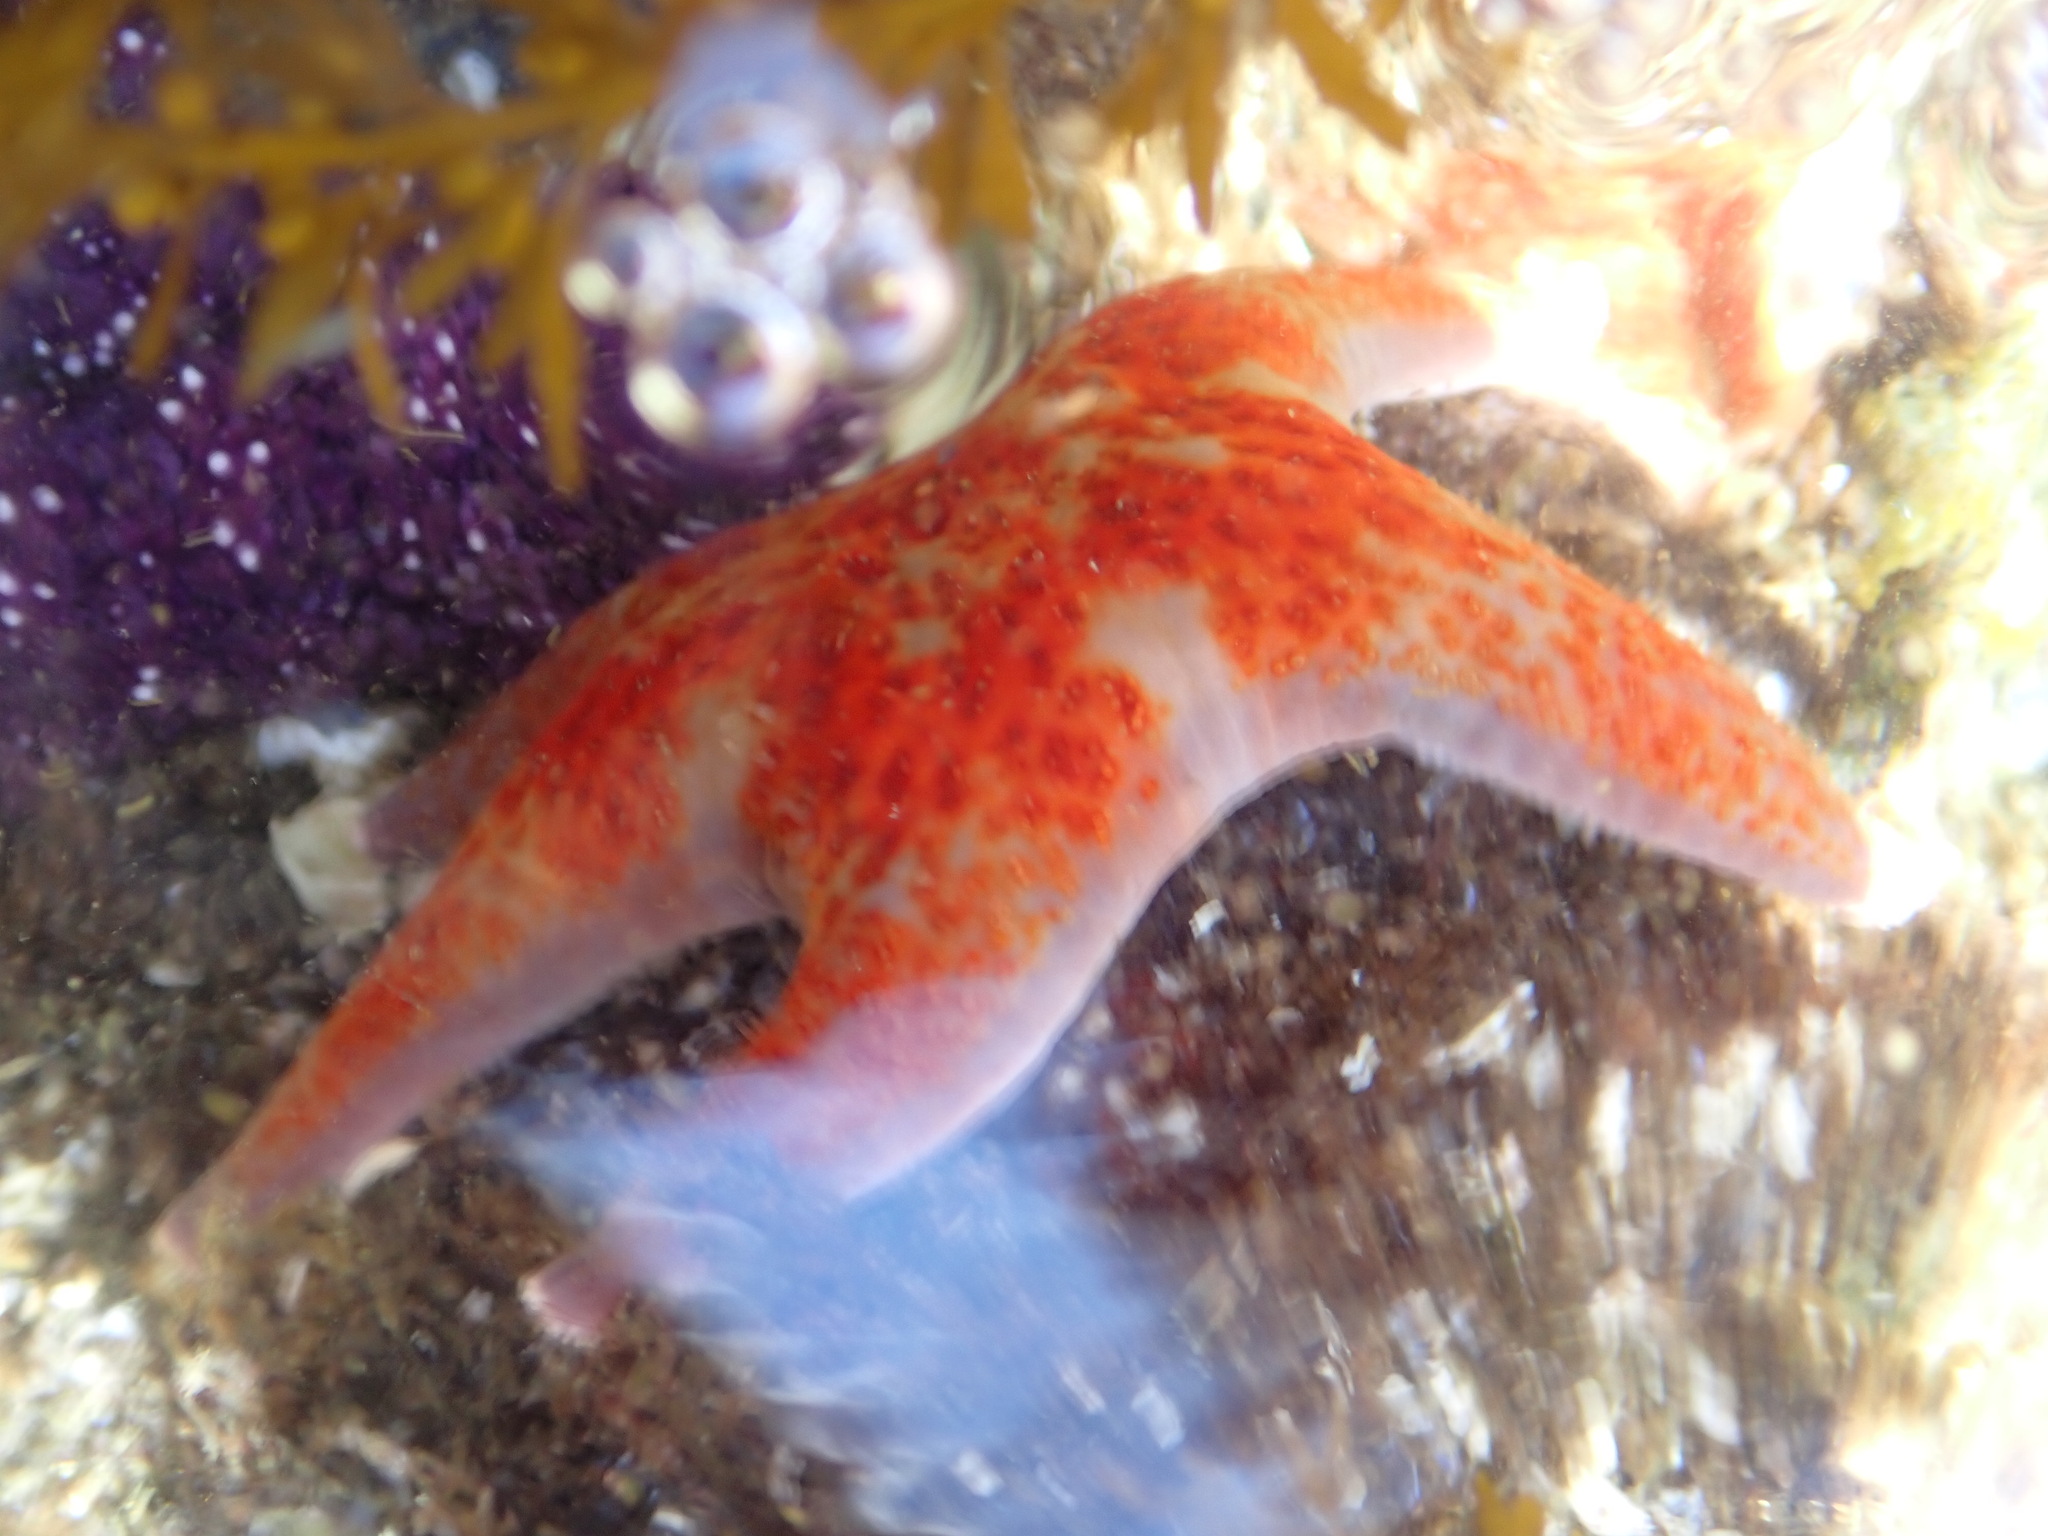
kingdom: Animalia
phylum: Echinodermata
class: Asteroidea
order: Valvatida
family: Asteropseidae
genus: Dermasterias
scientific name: Dermasterias imbricata
